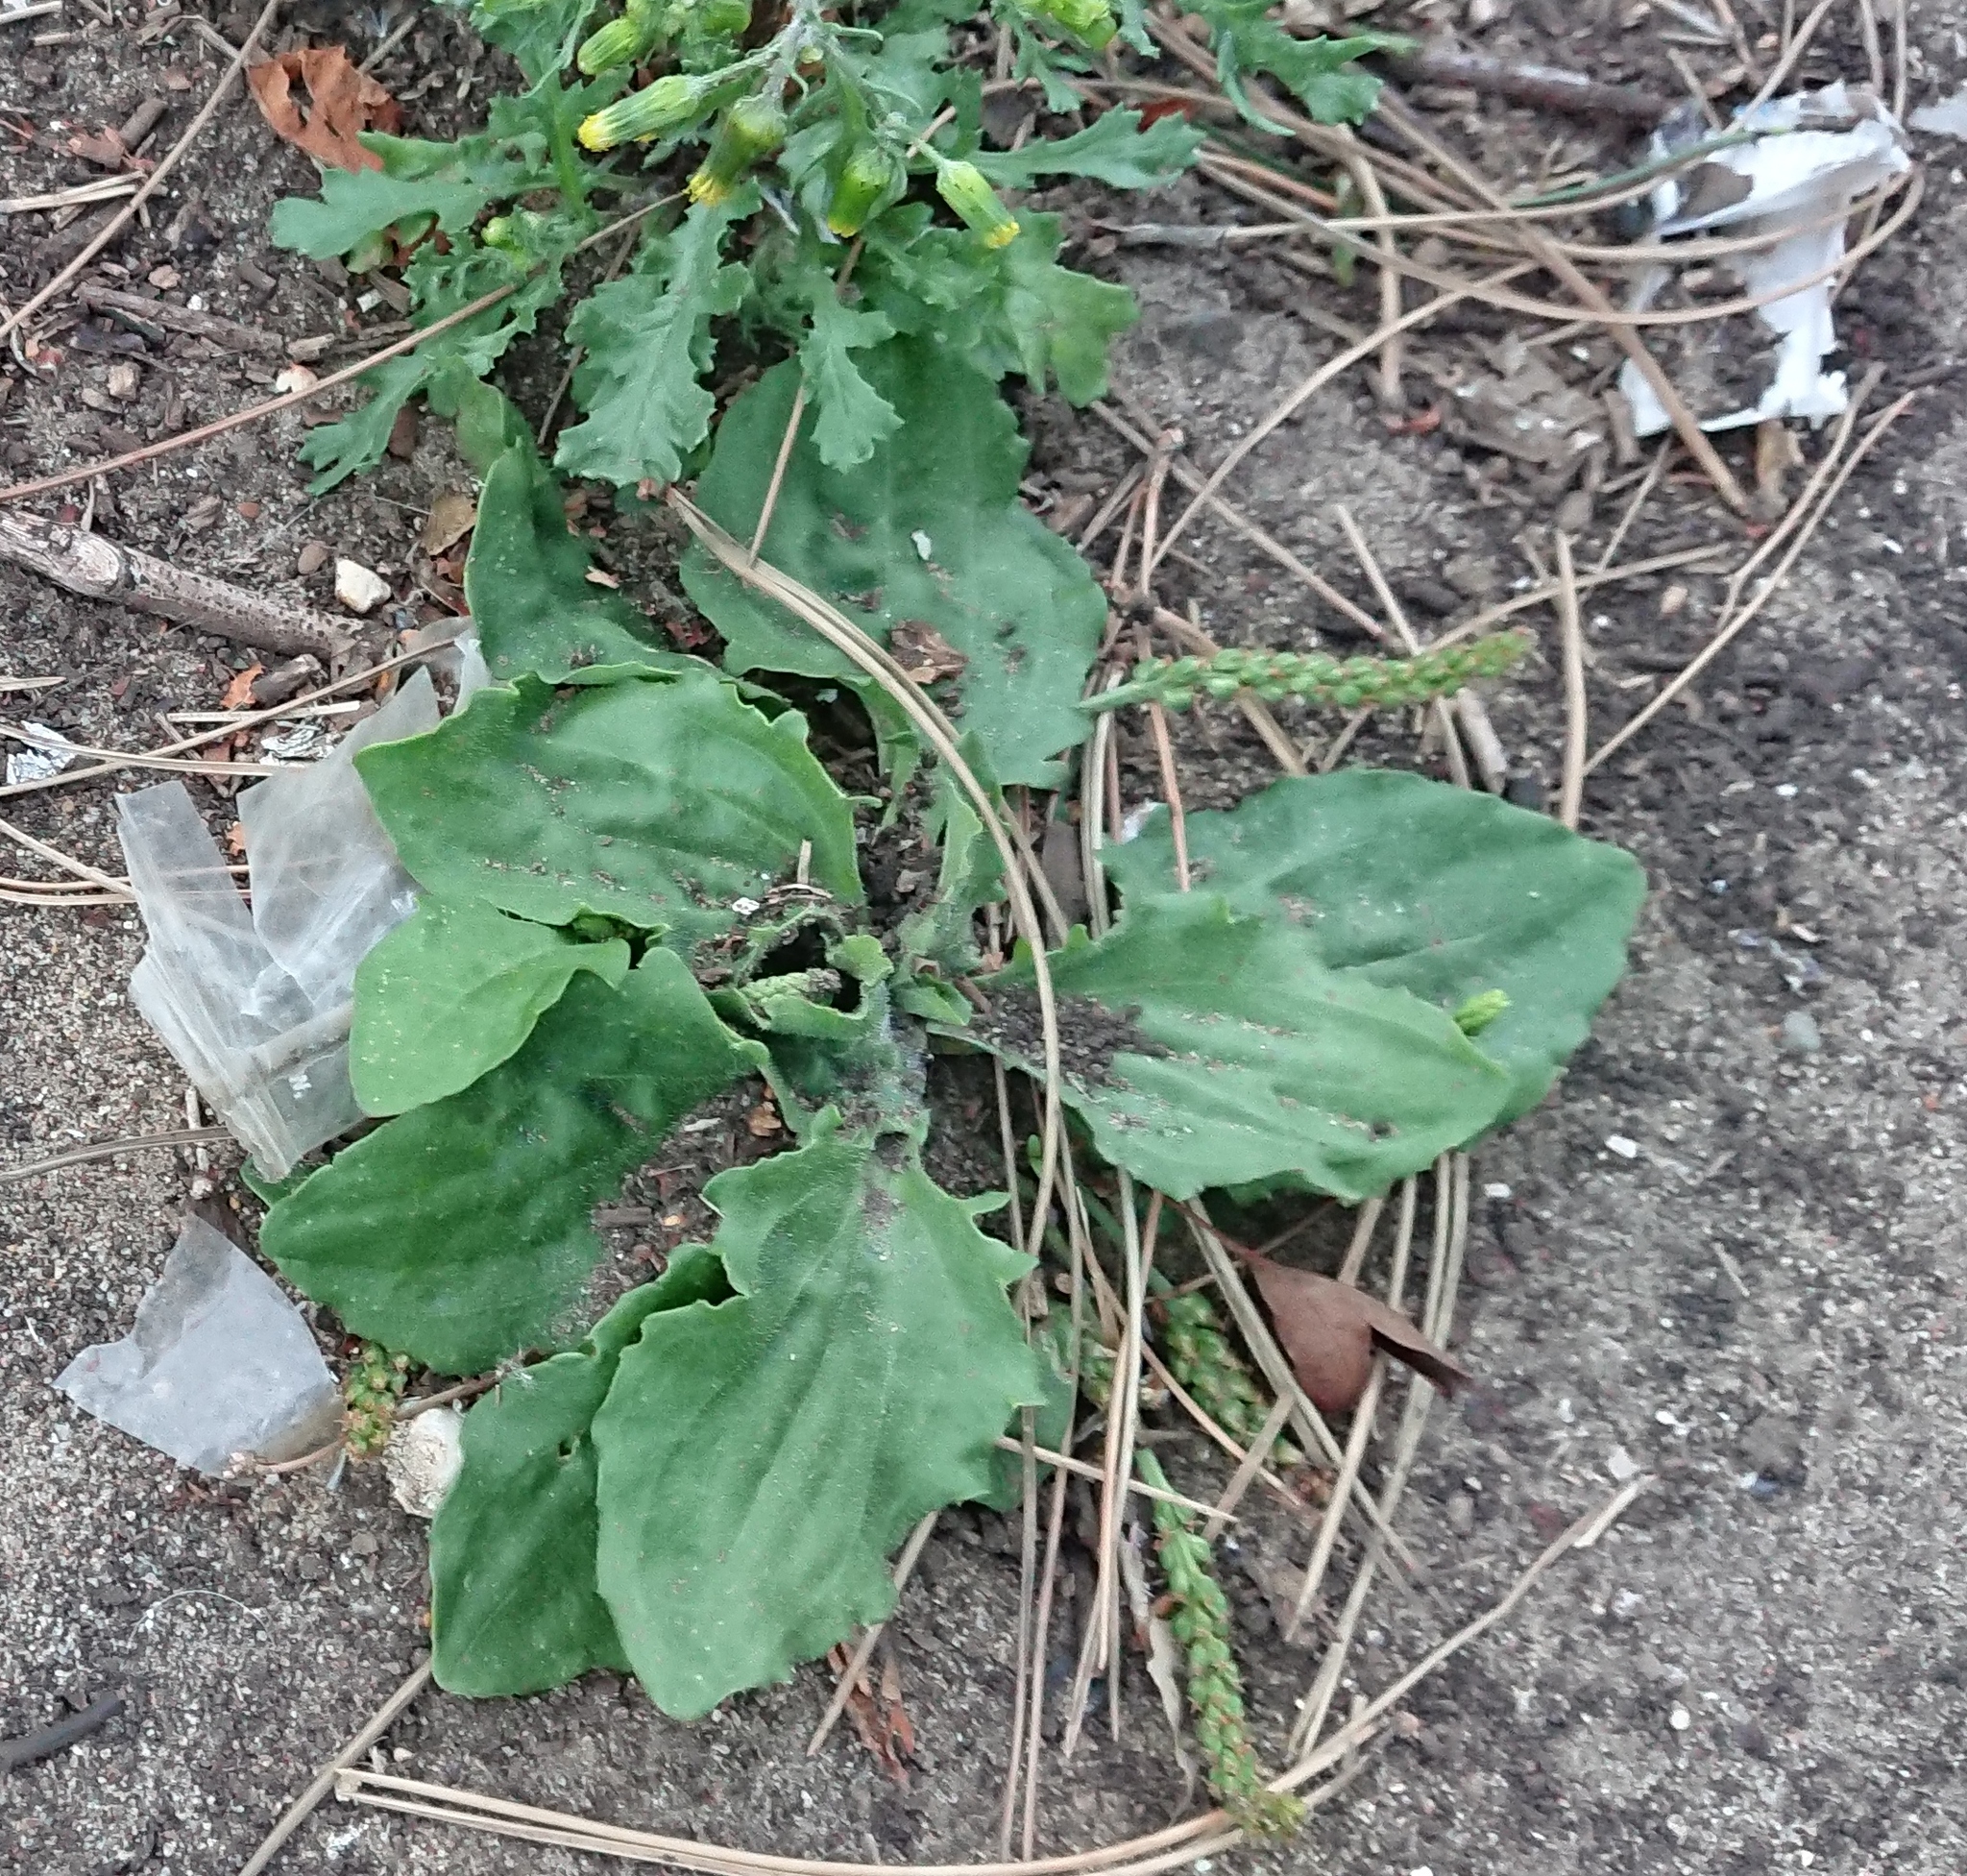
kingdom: Plantae
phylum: Tracheophyta
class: Magnoliopsida
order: Lamiales
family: Plantaginaceae
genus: Plantago
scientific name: Plantago major
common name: Common plantain
